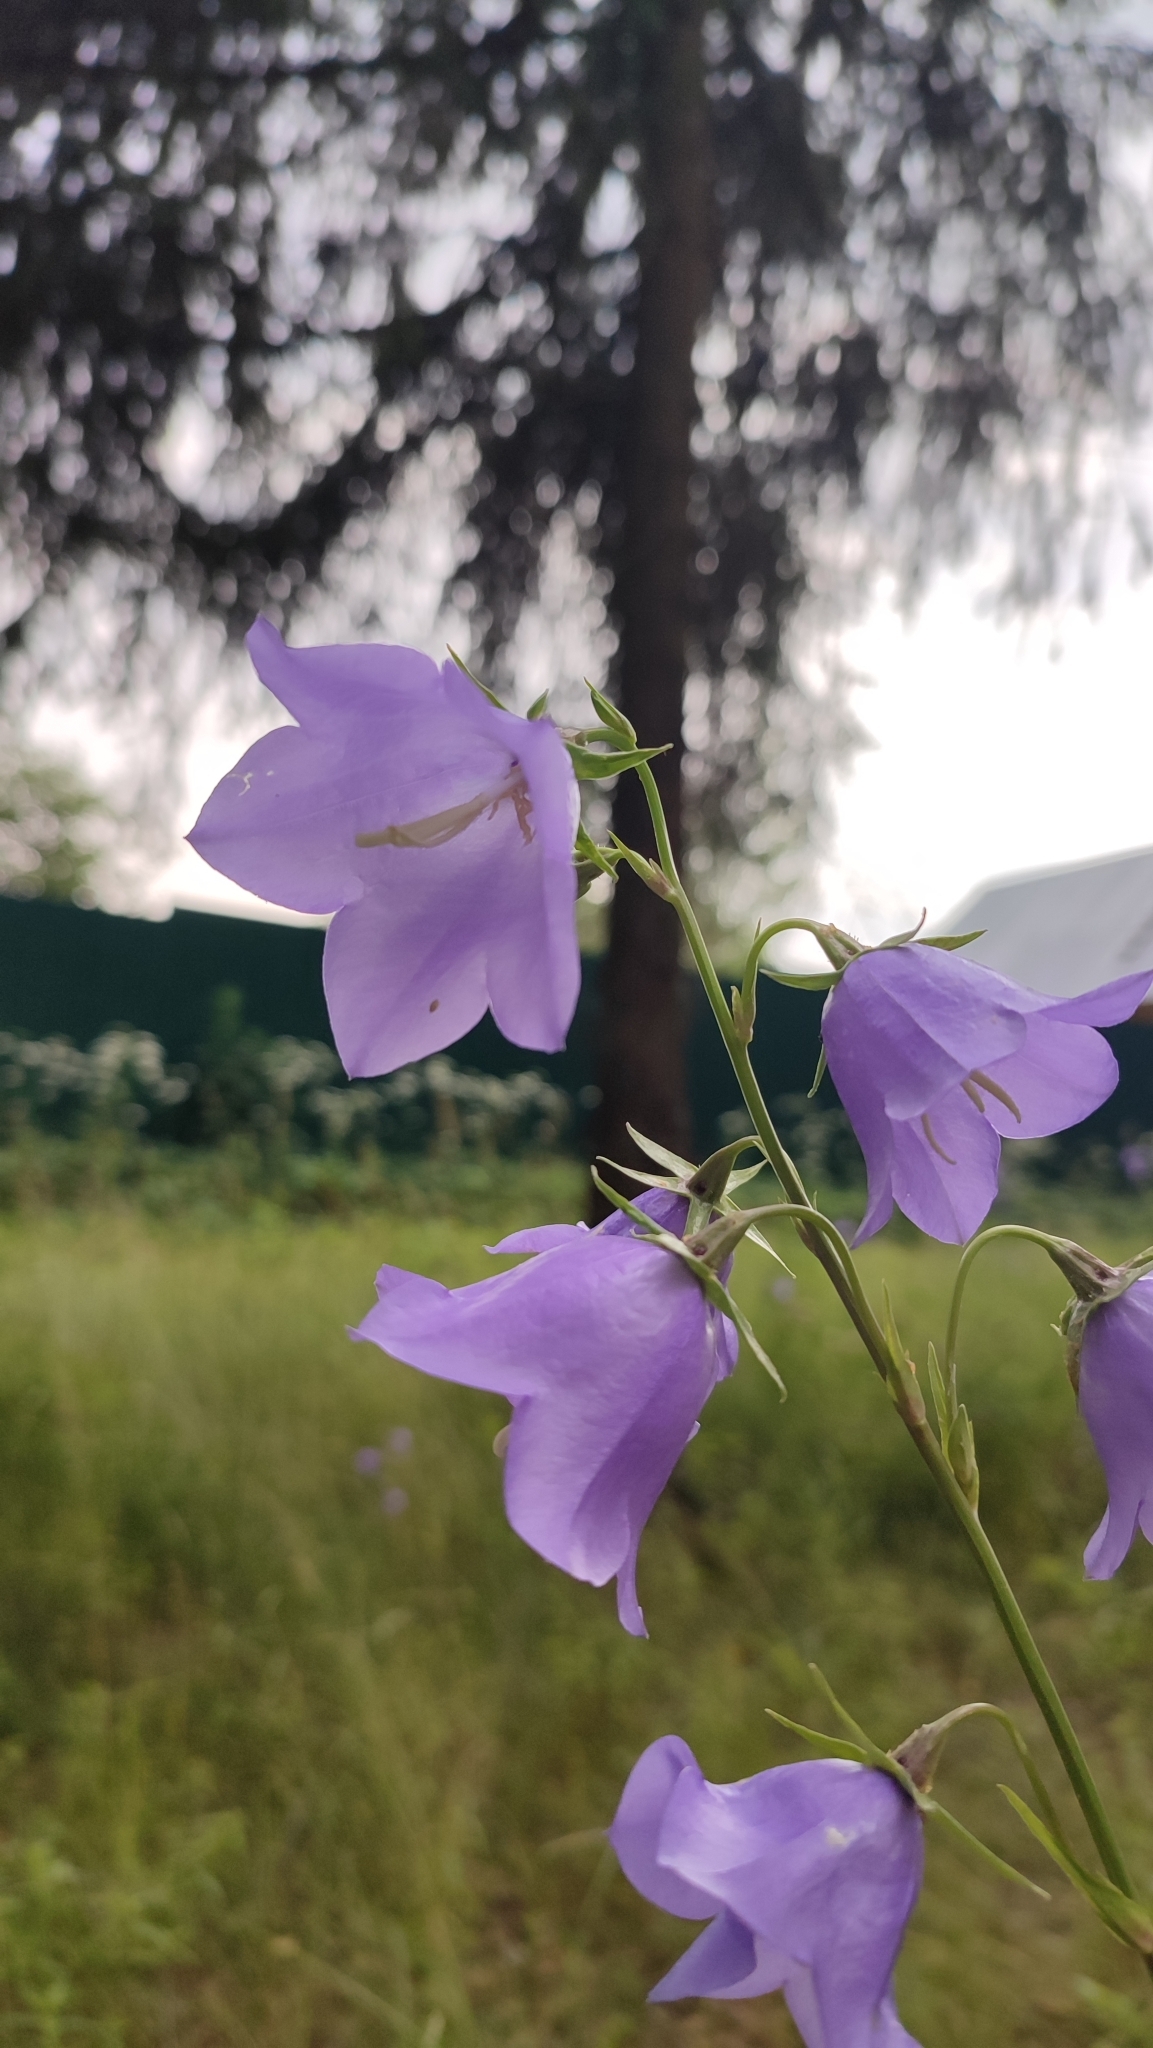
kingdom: Plantae
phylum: Tracheophyta
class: Magnoliopsida
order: Asterales
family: Campanulaceae
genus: Campanula
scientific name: Campanula persicifolia
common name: Peach-leaved bellflower
